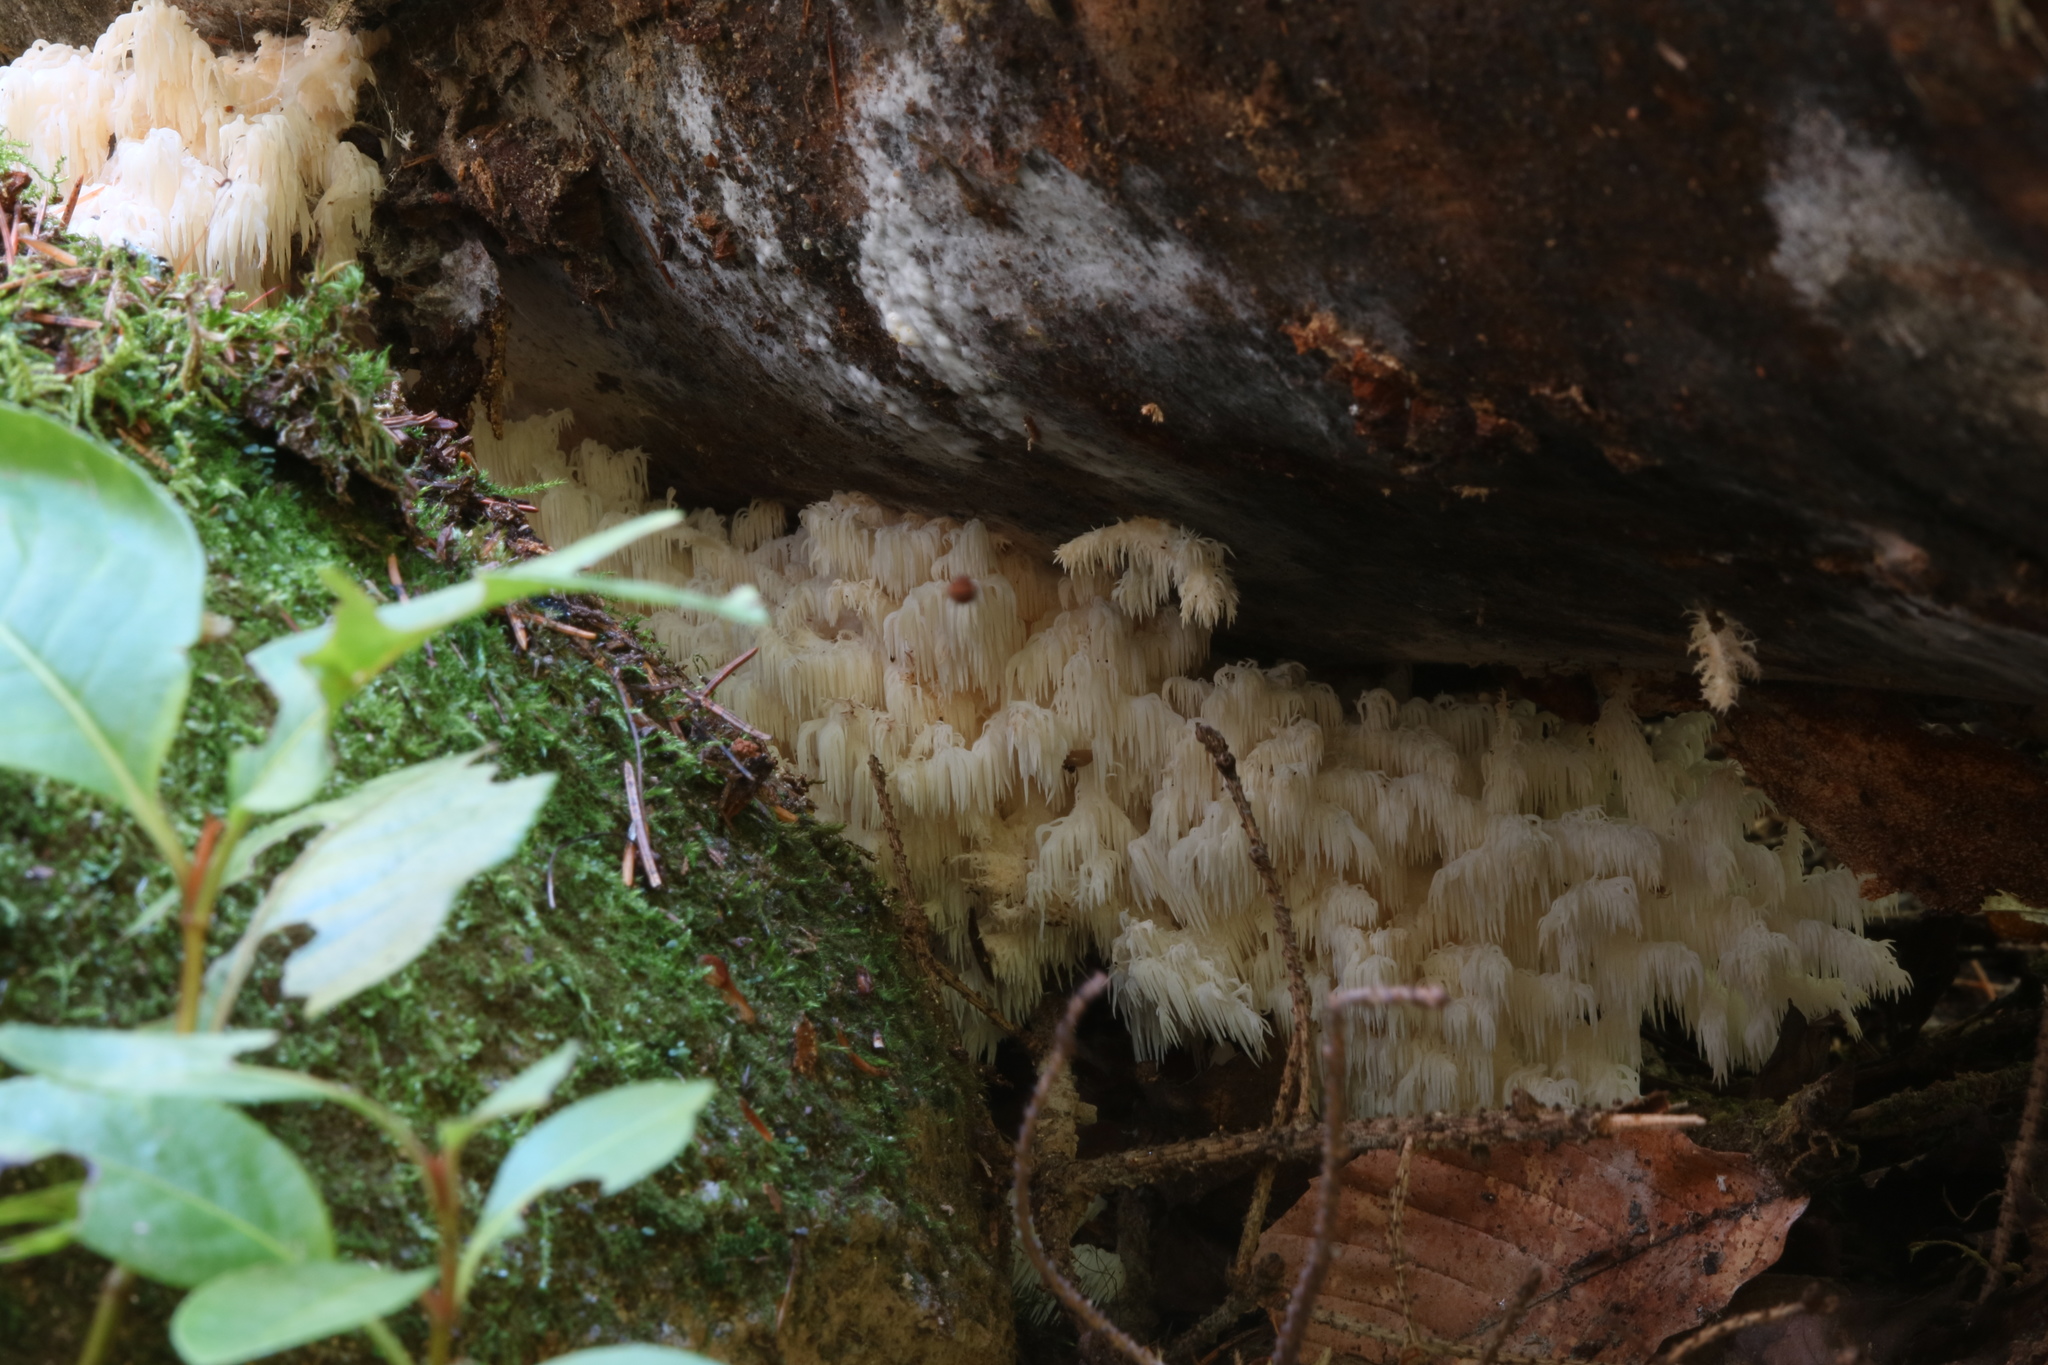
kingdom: Fungi
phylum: Basidiomycota
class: Agaricomycetes
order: Russulales
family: Hericiaceae
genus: Hericium
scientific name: Hericium coralloides
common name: Coral tooth
